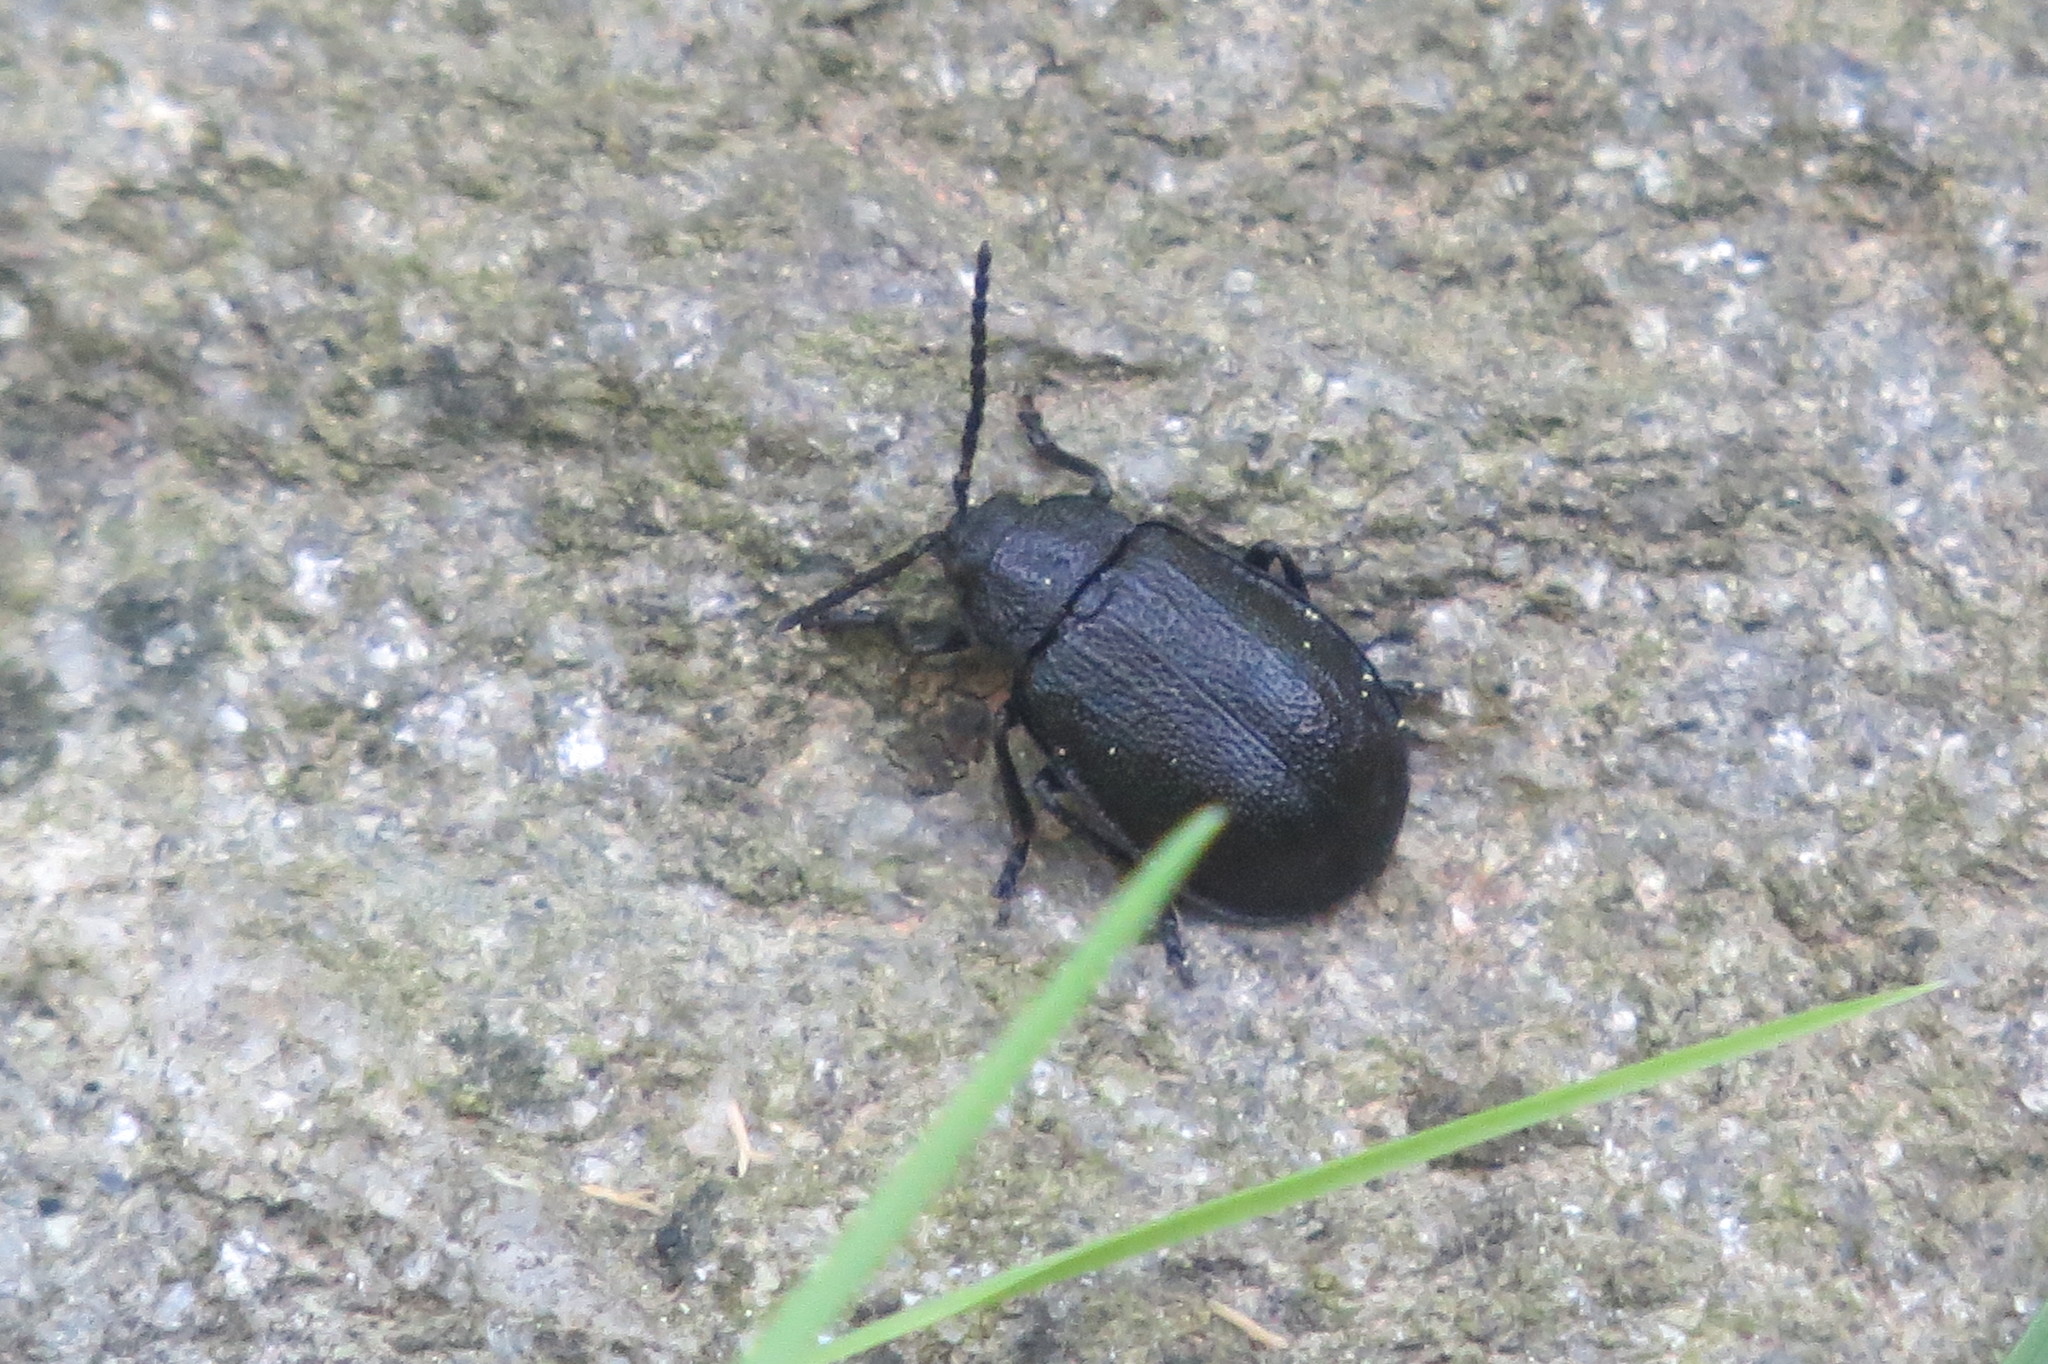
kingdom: Animalia
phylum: Arthropoda
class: Insecta
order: Coleoptera
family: Chrysomelidae
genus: Galeruca
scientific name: Galeruca tanaceti
